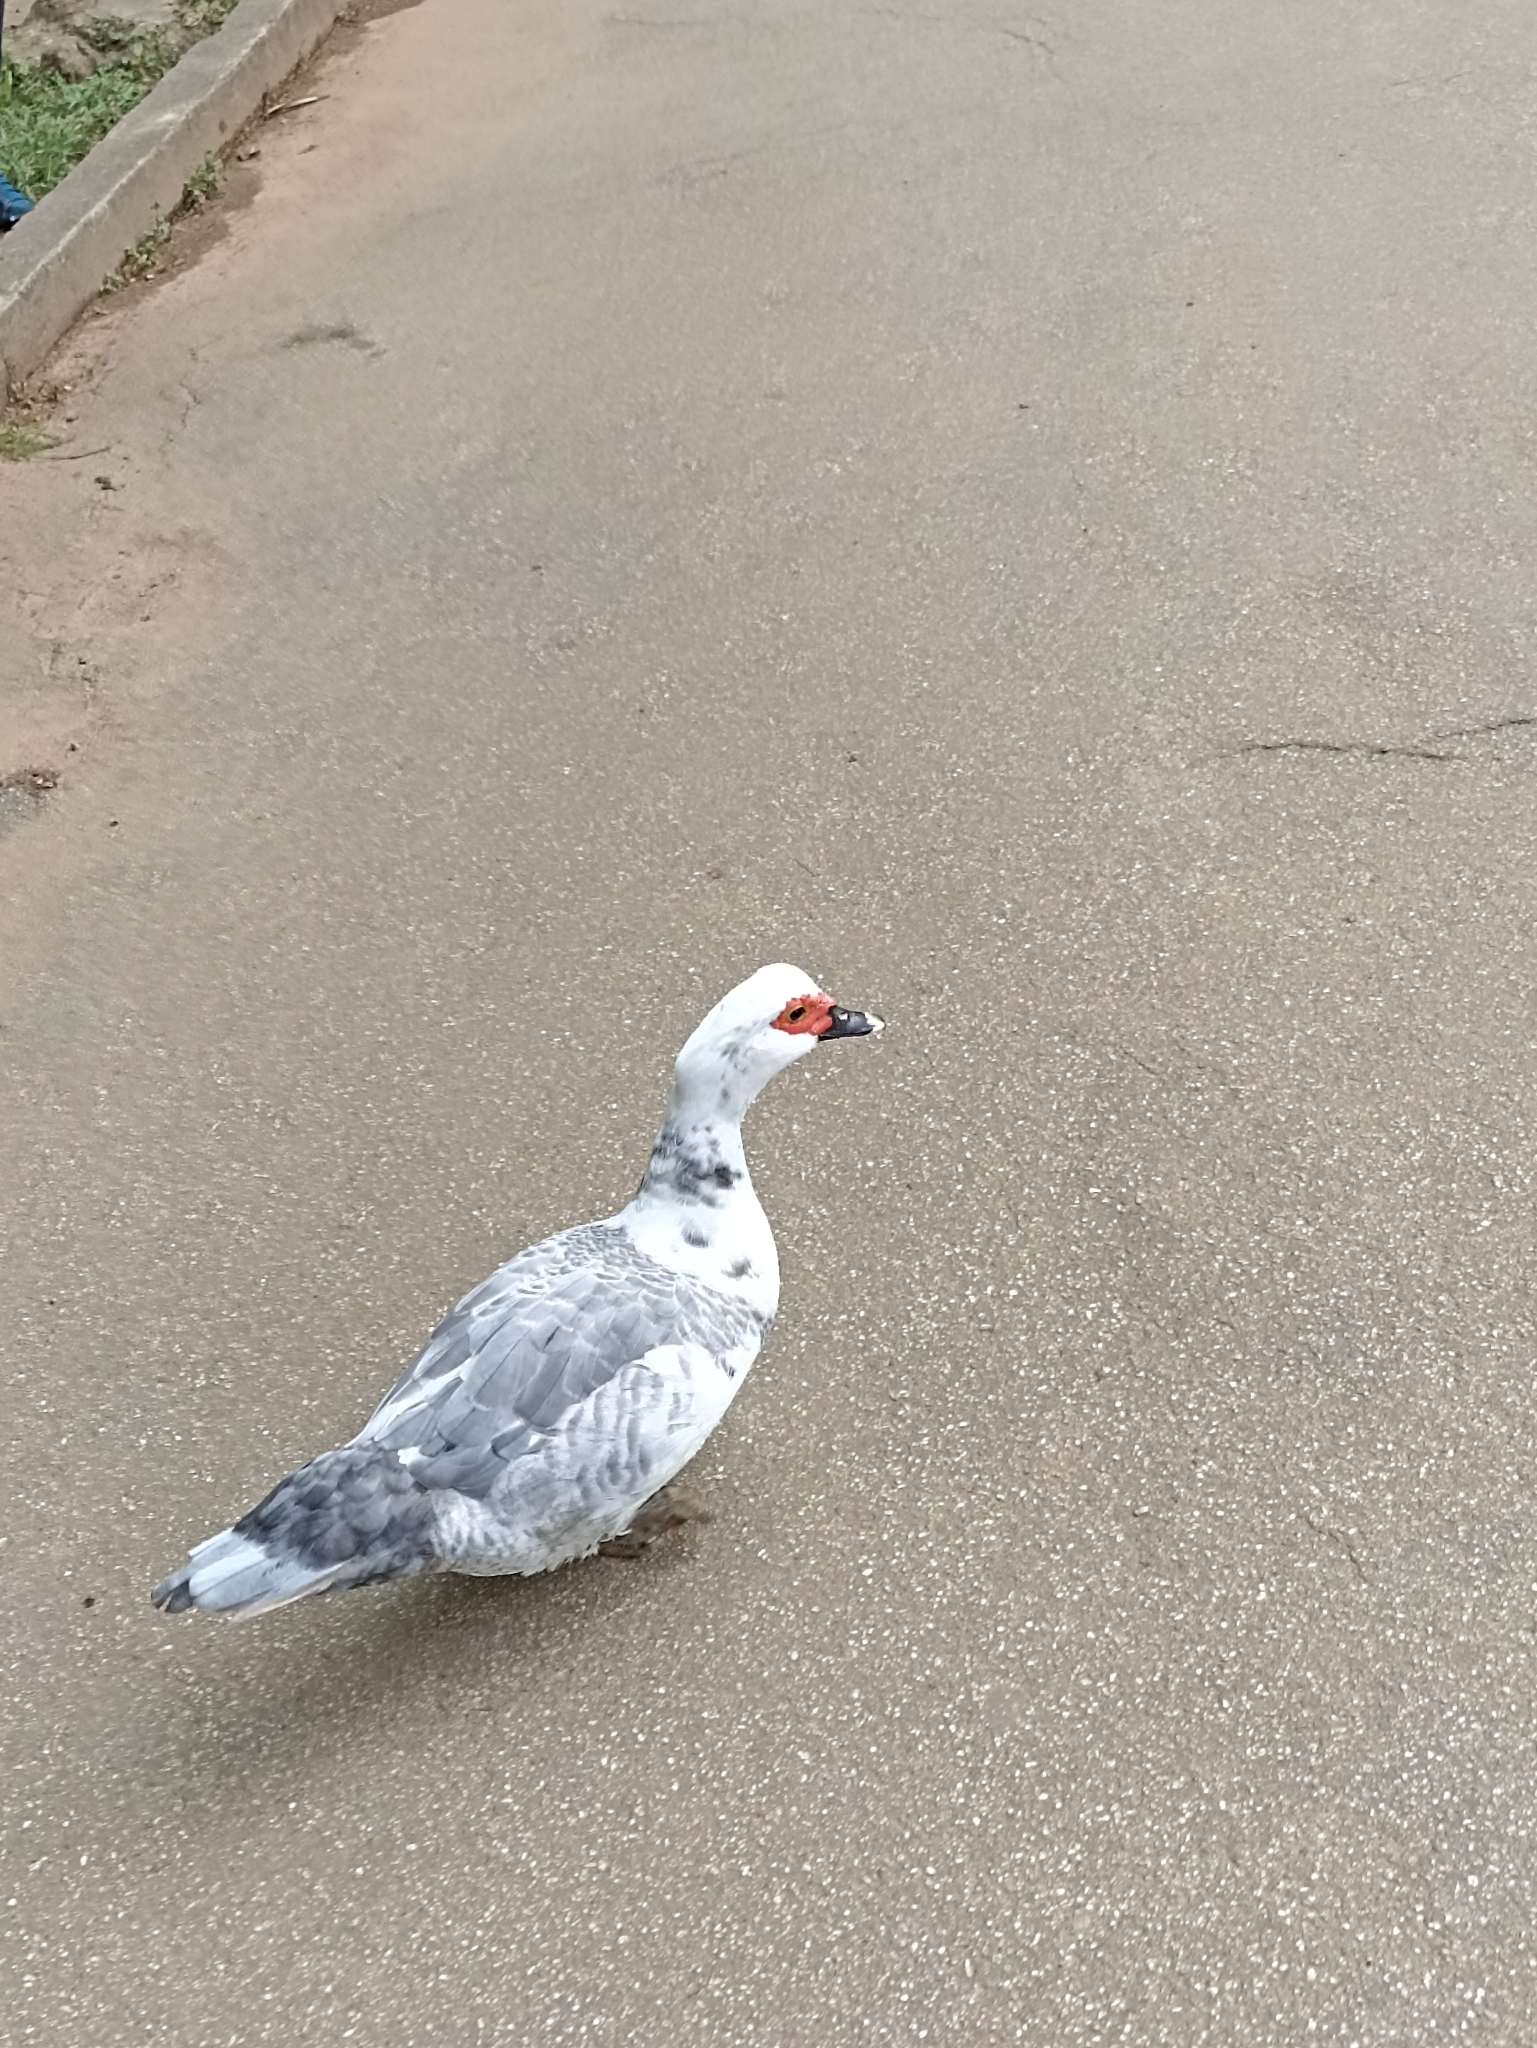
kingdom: Animalia
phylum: Chordata
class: Aves
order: Anseriformes
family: Anatidae
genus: Cairina
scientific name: Cairina moschata
